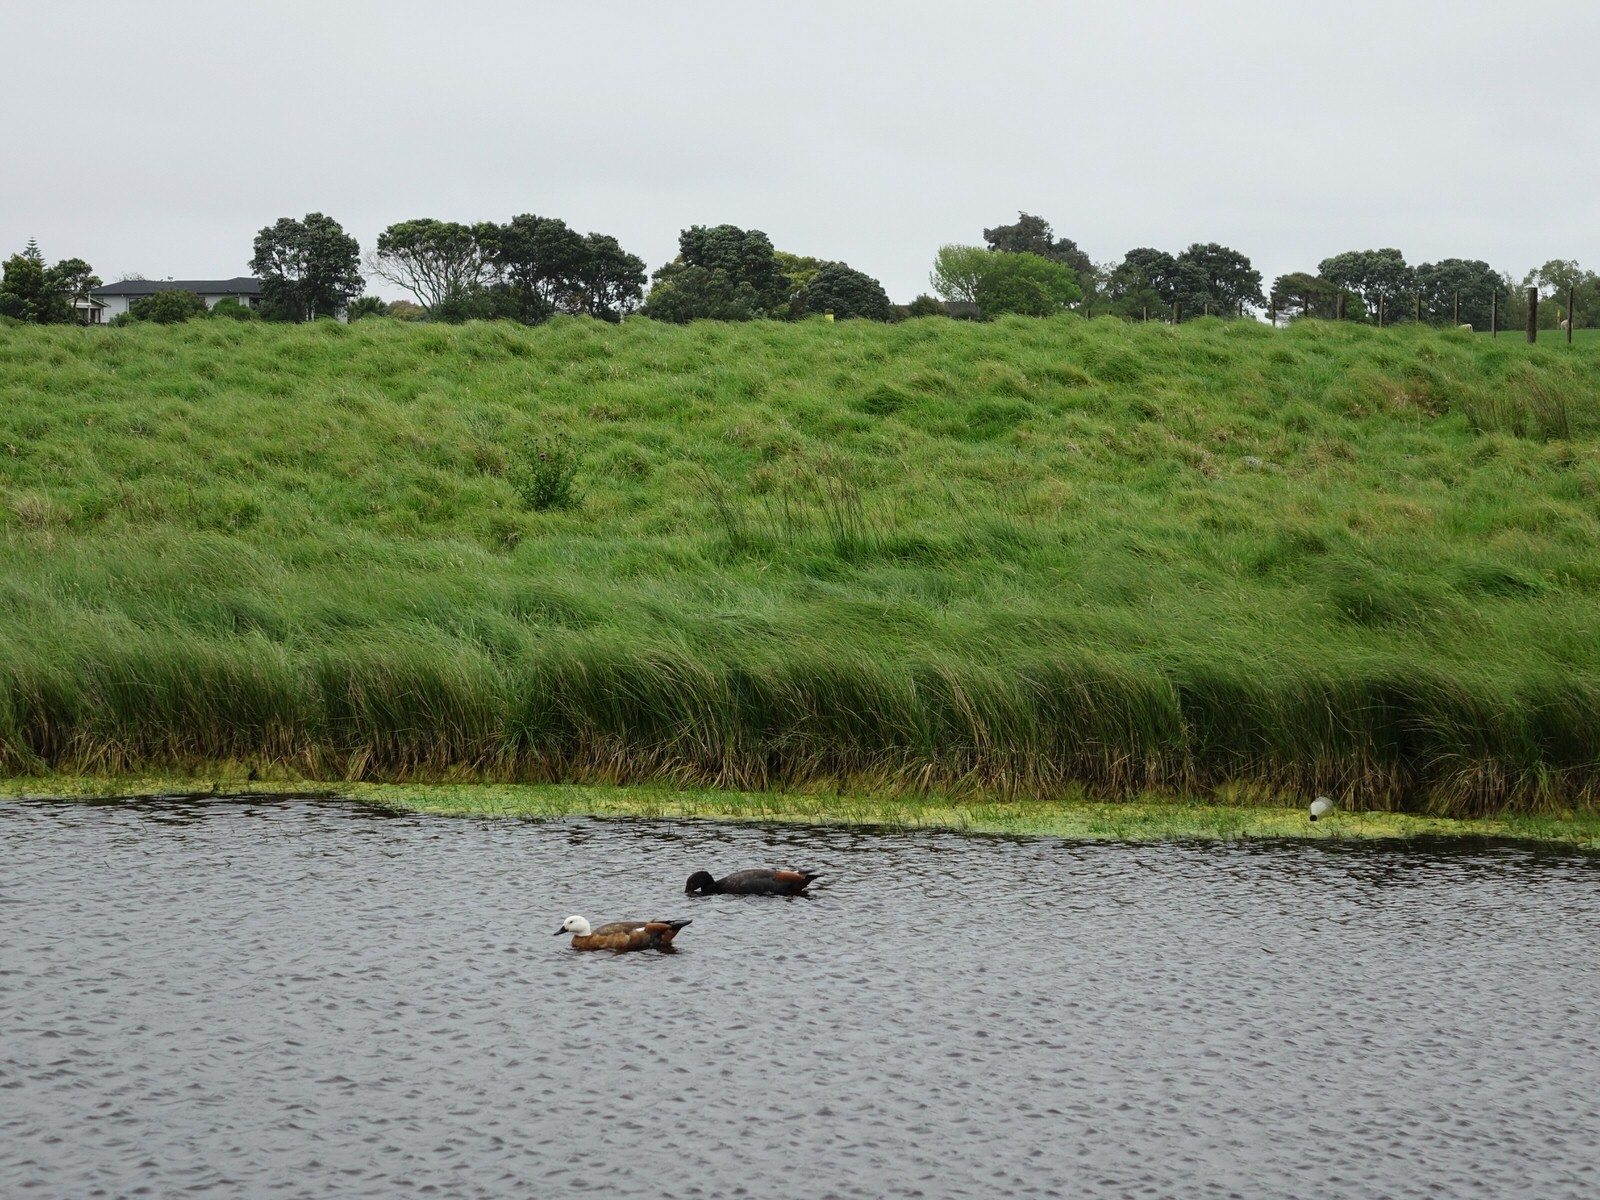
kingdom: Animalia
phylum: Chordata
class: Aves
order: Anseriformes
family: Anatidae
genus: Tadorna
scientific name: Tadorna variegata
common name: Paradise shelduck
